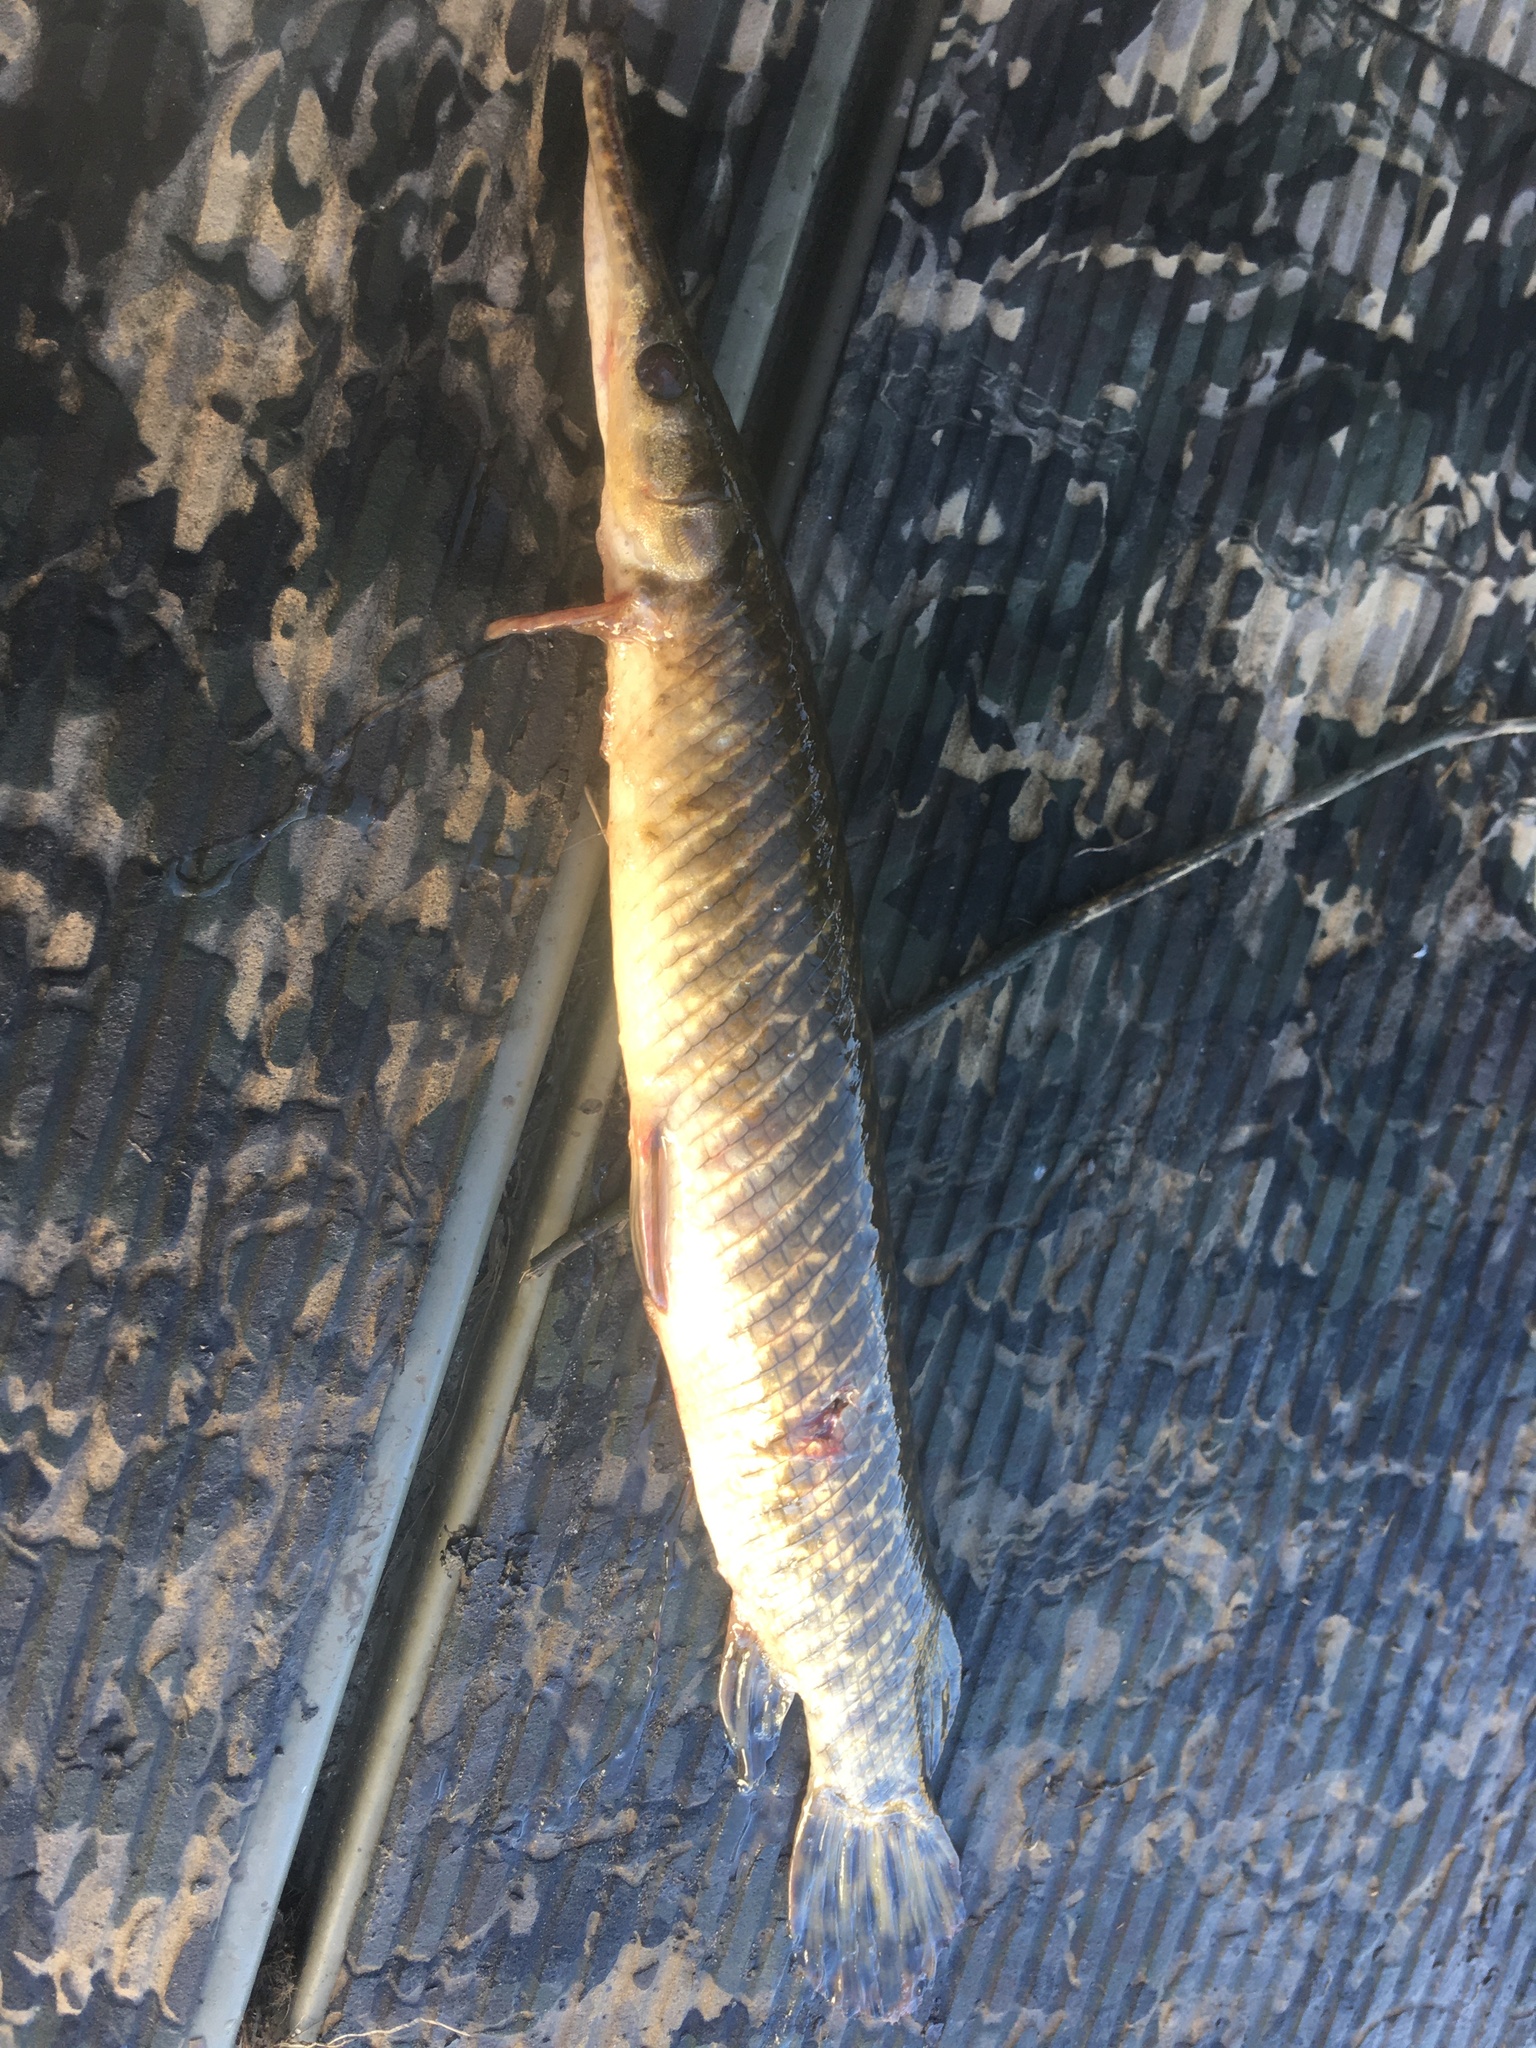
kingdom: Animalia
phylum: Chordata
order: Lepisosteiformes
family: Lepisosteidae
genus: Lepisosteus
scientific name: Lepisosteus oculatus
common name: Spotted gar
